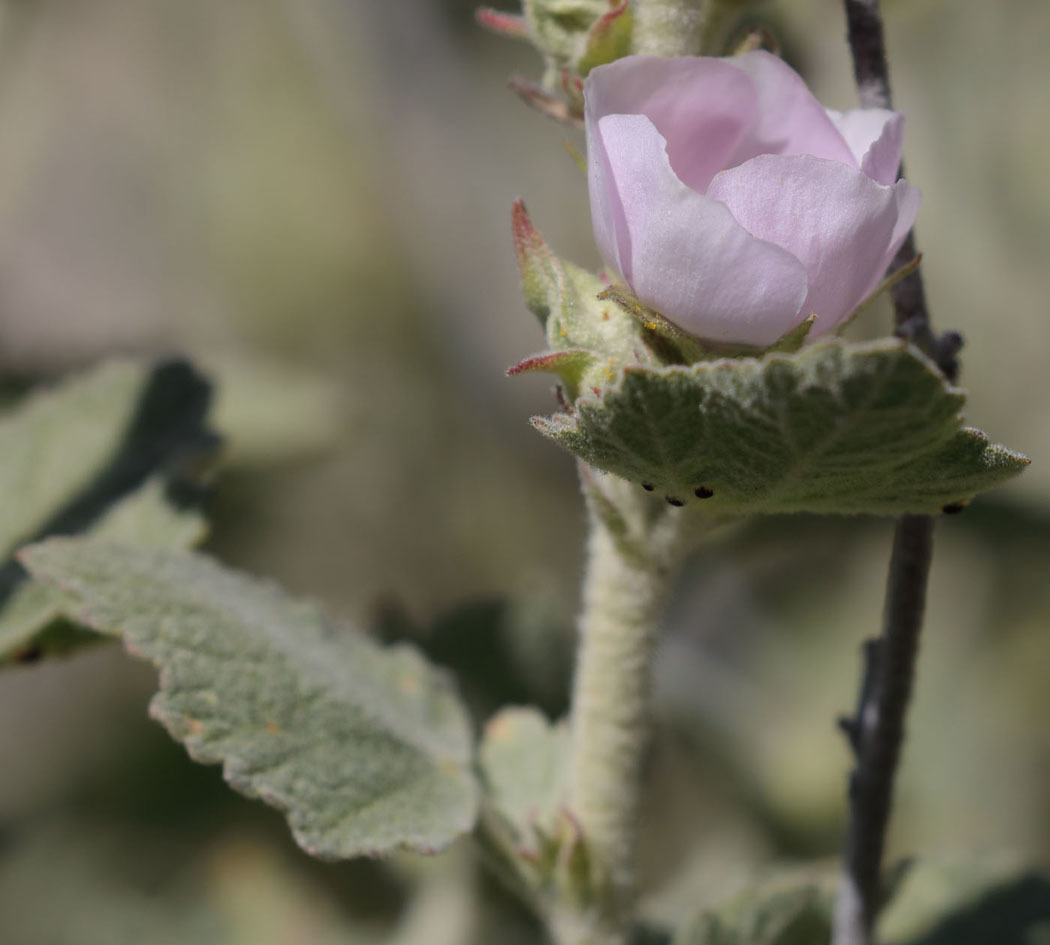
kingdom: Plantae
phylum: Tracheophyta
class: Magnoliopsida
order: Malvales
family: Malvaceae
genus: Malacothamnus
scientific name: Malacothamnus aboriginum
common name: Indian valley bush-mallow
